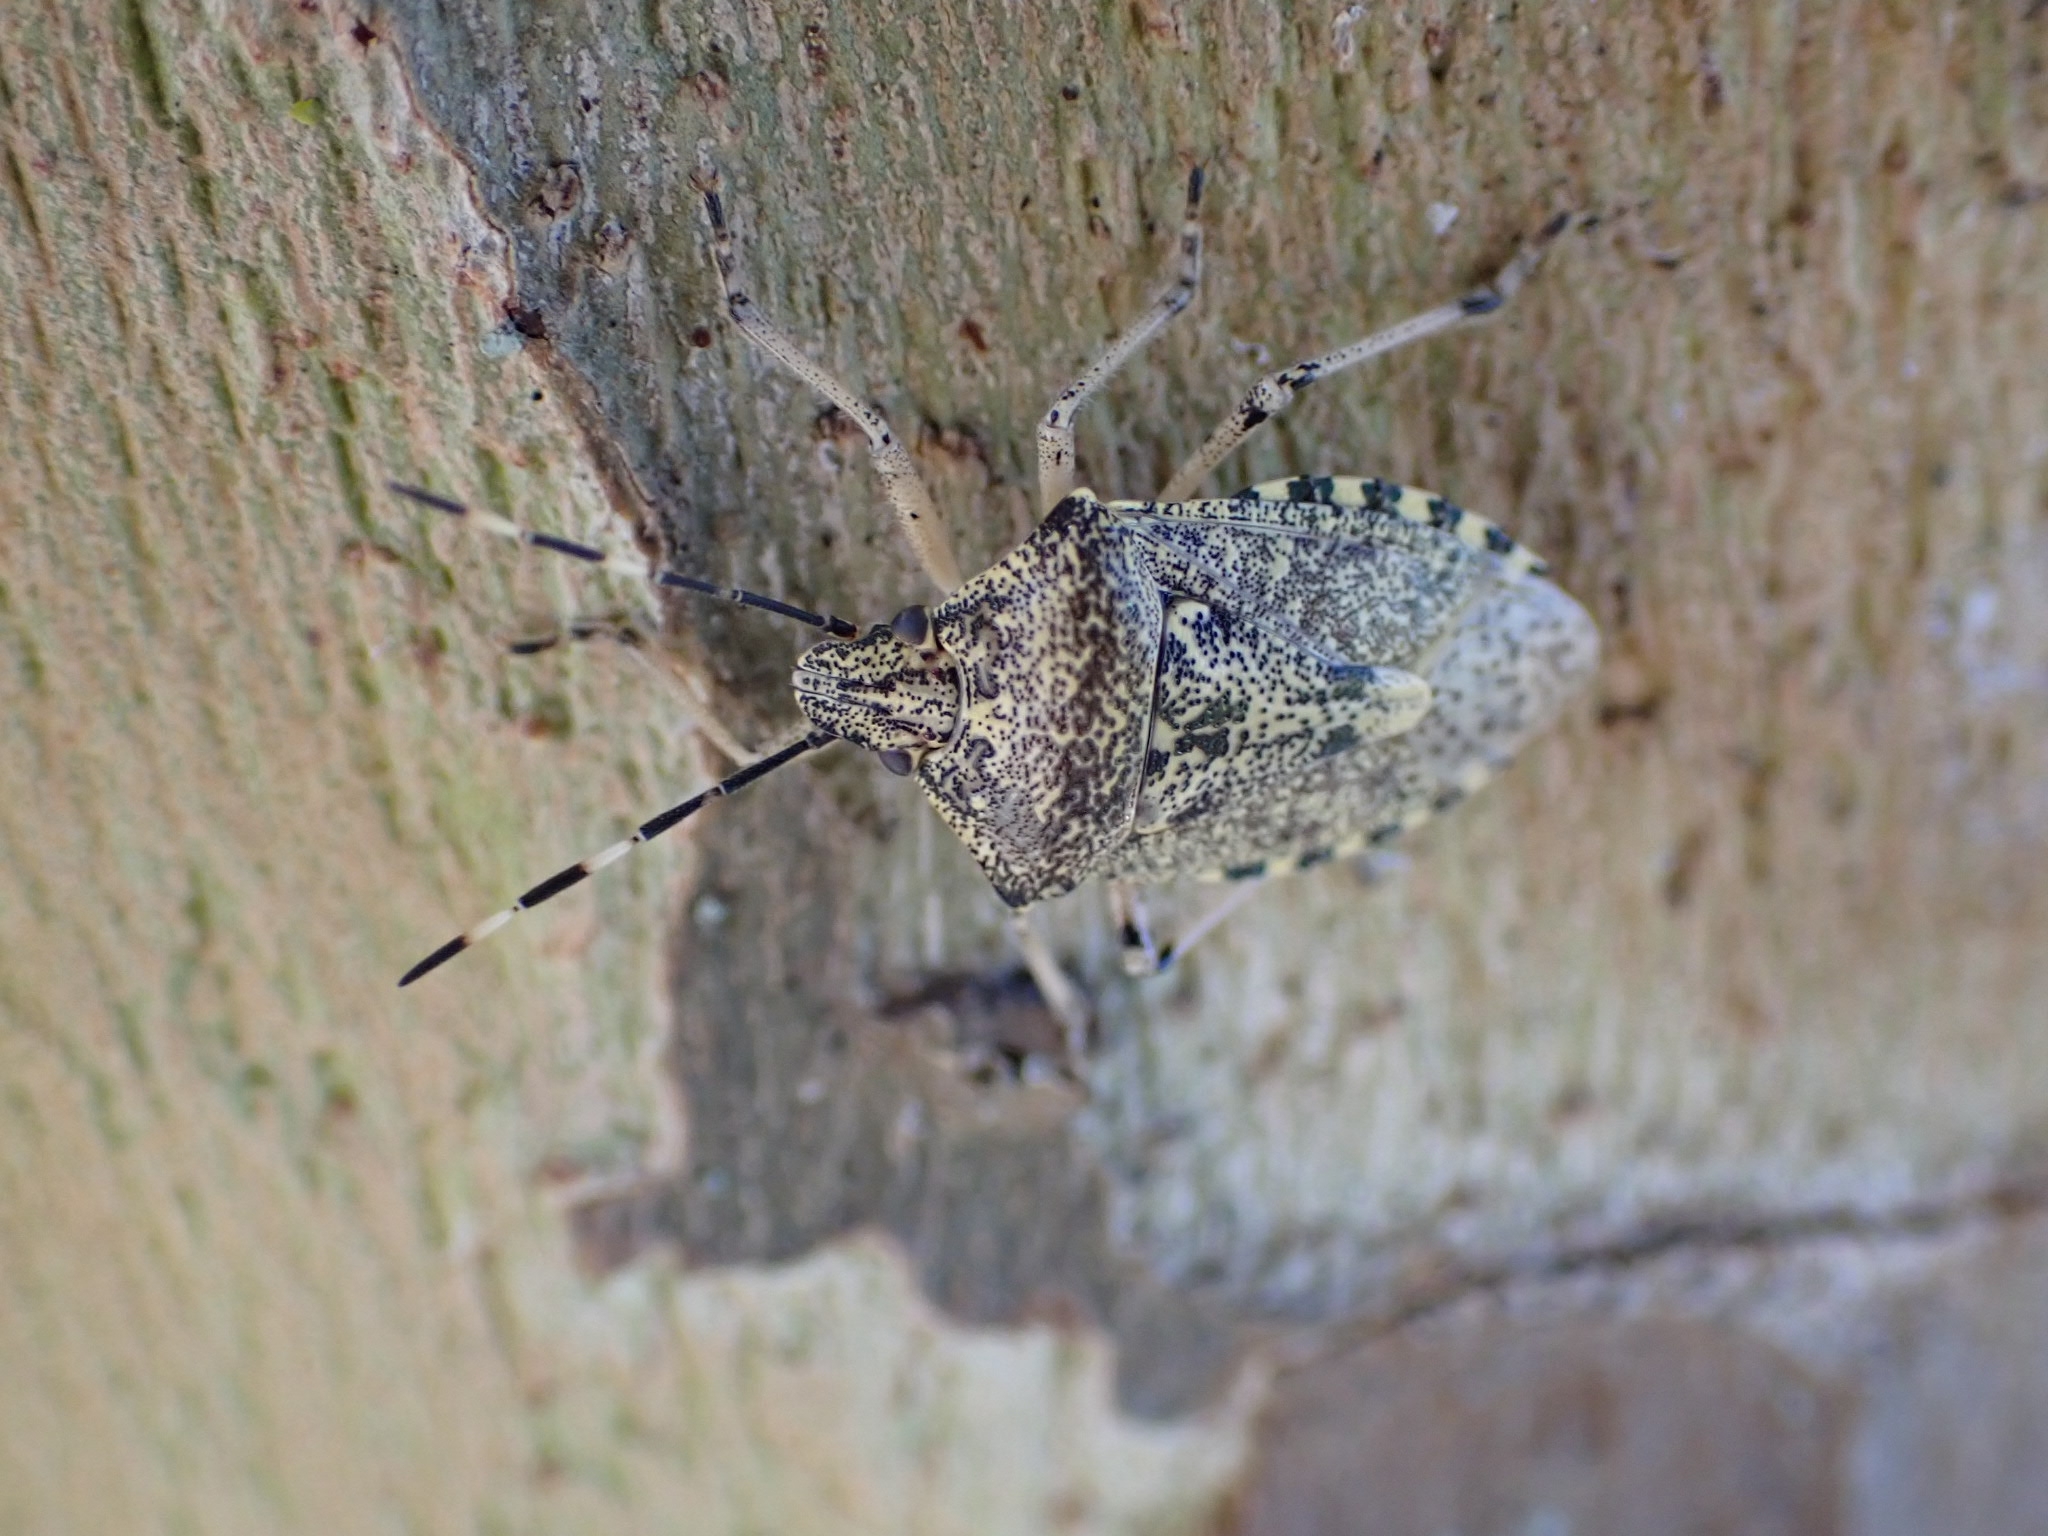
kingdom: Animalia
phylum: Arthropoda
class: Insecta
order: Hemiptera
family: Pentatomidae
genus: Rhaphigaster
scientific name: Rhaphigaster nebulosa
